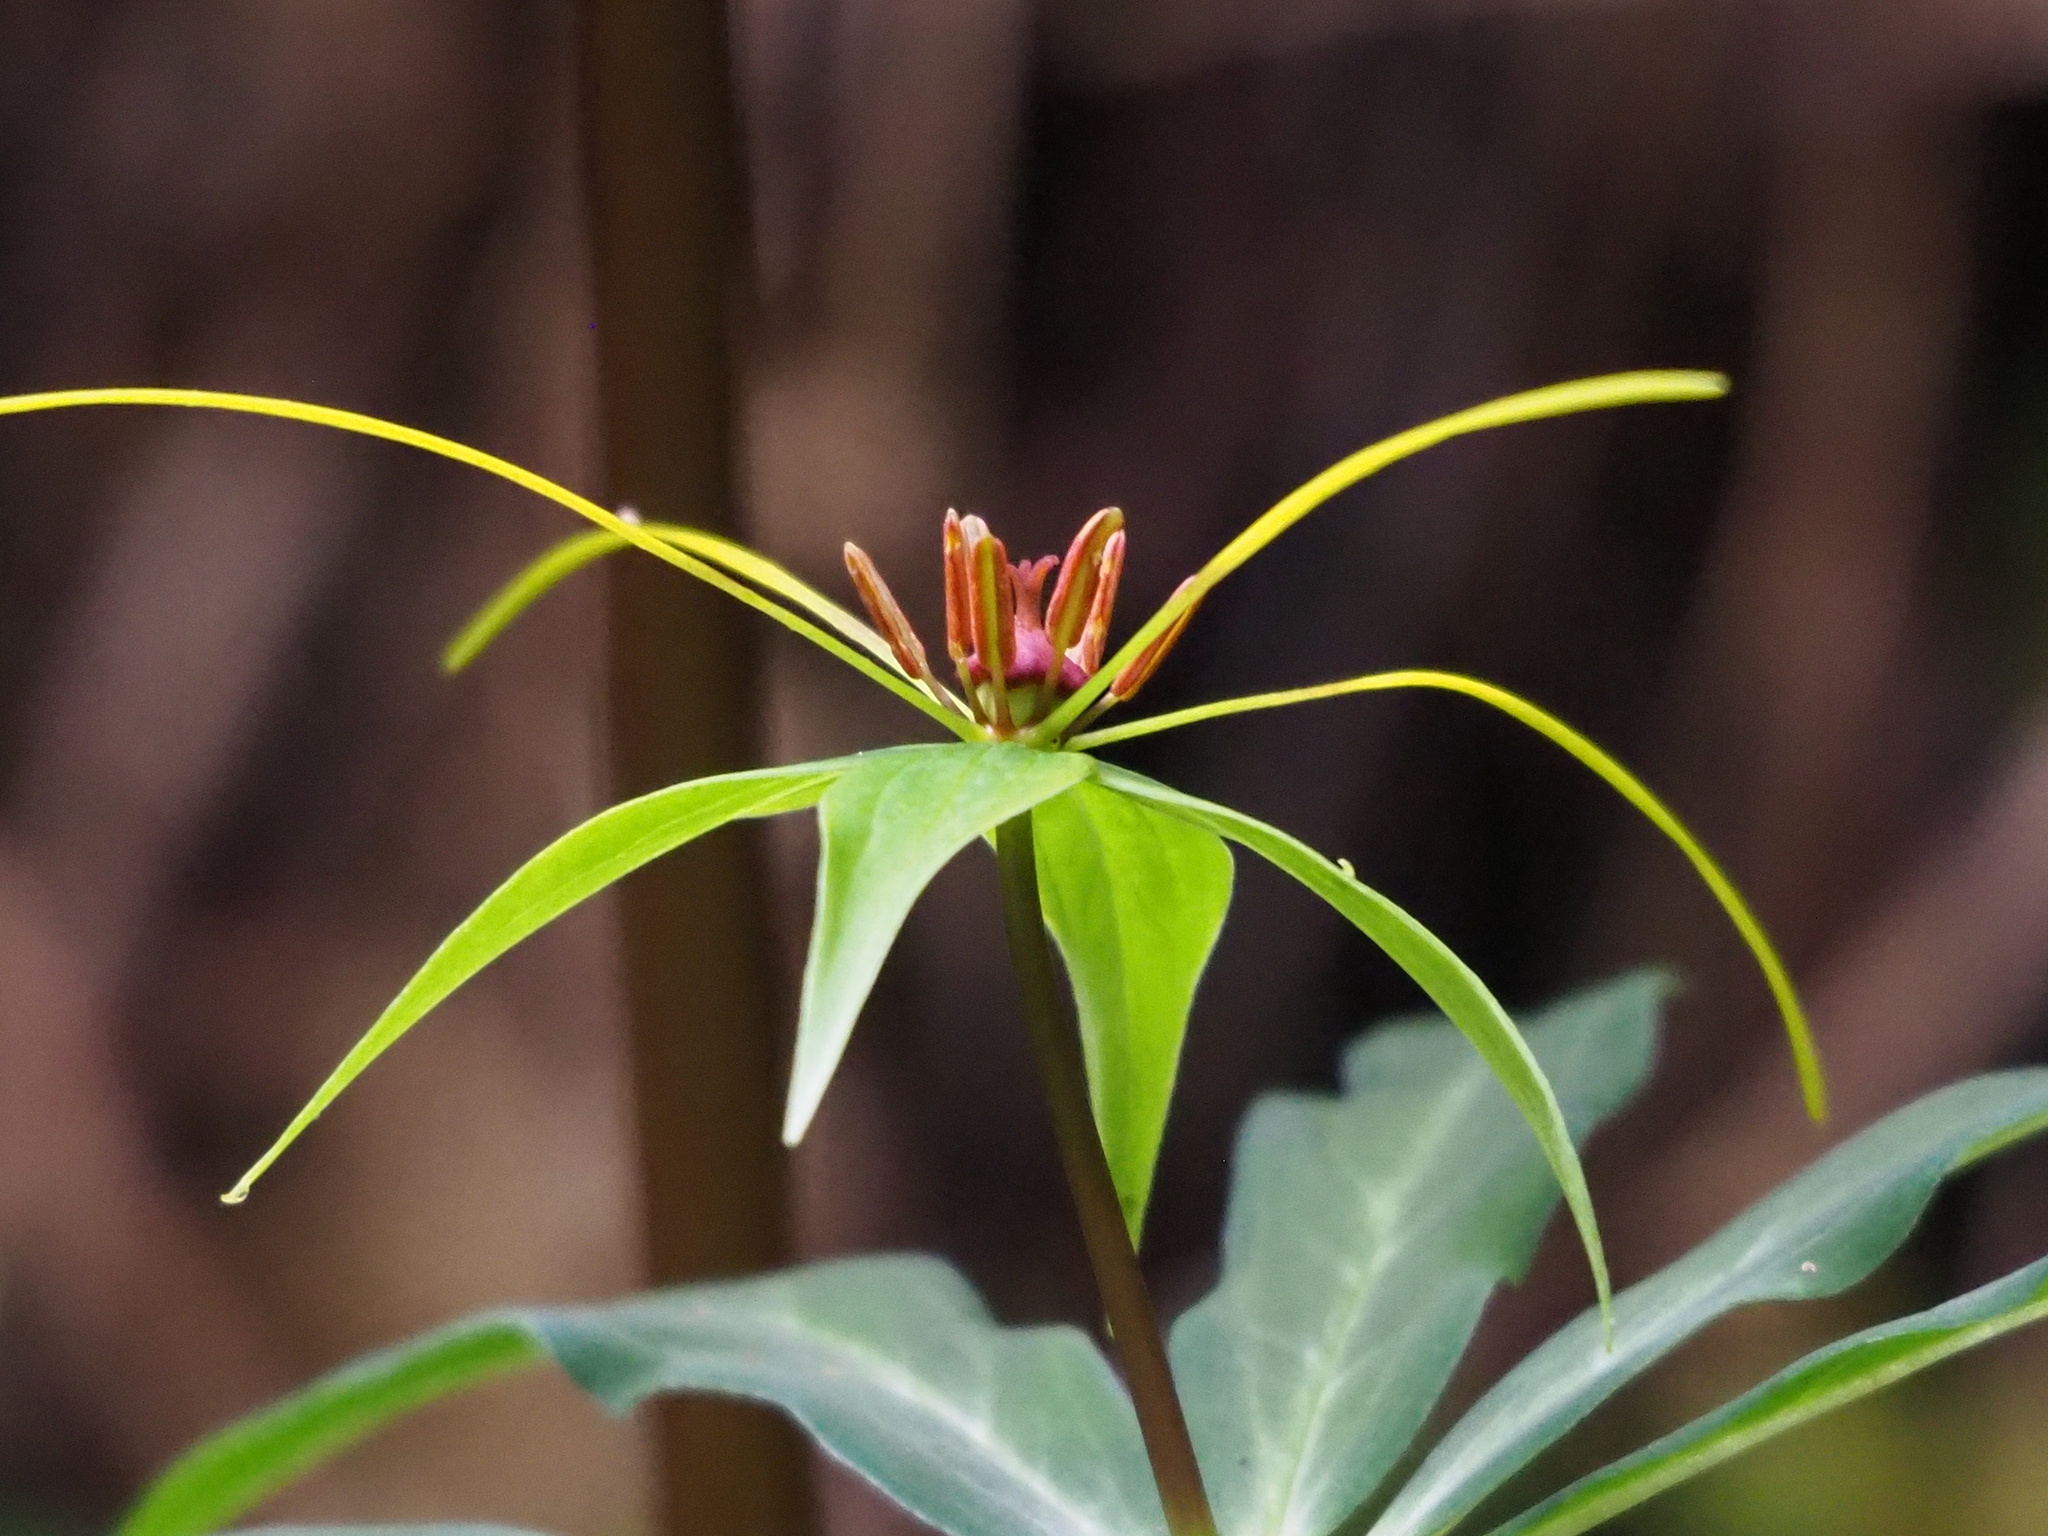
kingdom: Plantae
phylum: Tracheophyta
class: Liliopsida
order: Liliales
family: Melanthiaceae
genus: Paris
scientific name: Paris lancifolia
